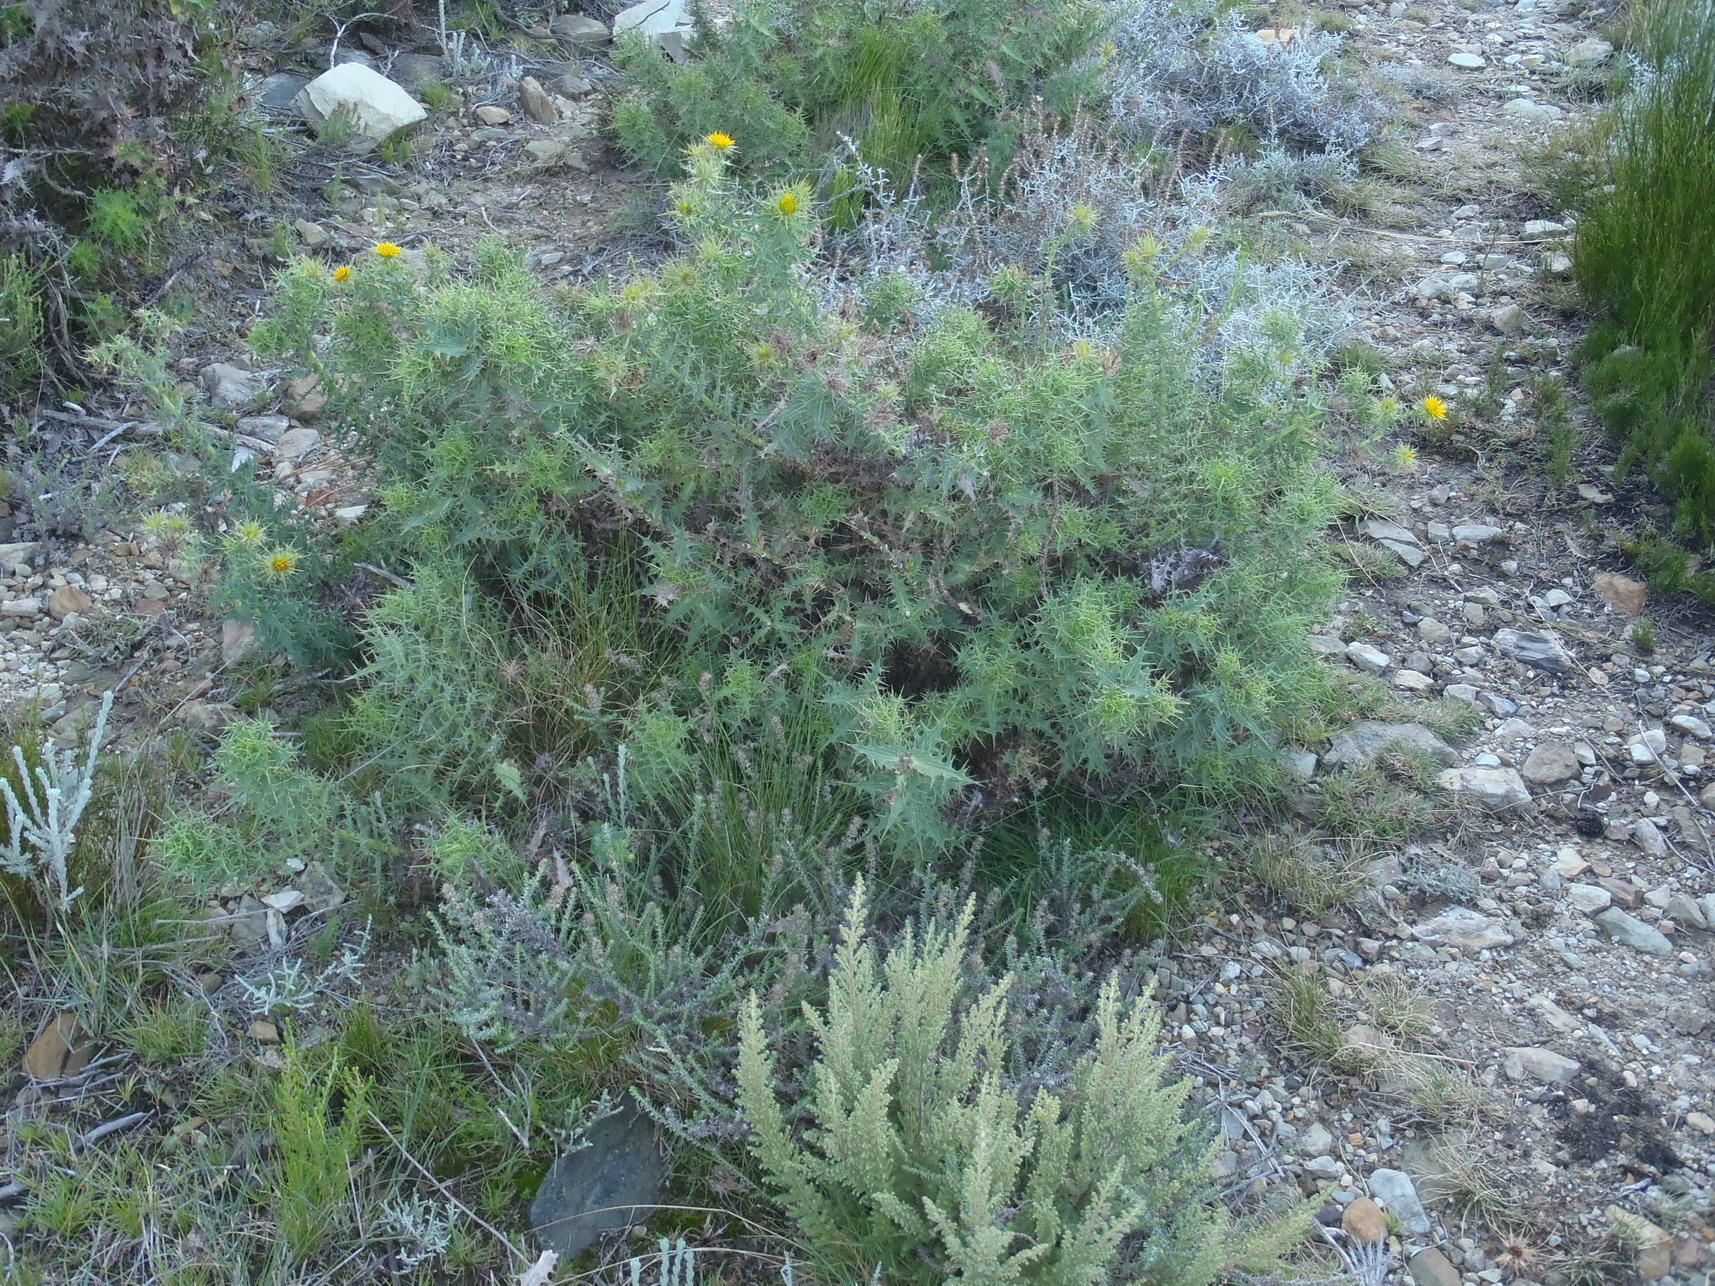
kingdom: Plantae
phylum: Tracheophyta
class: Magnoliopsida
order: Asterales
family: Asteraceae
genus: Berkheya
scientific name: Berkheya cruciata
